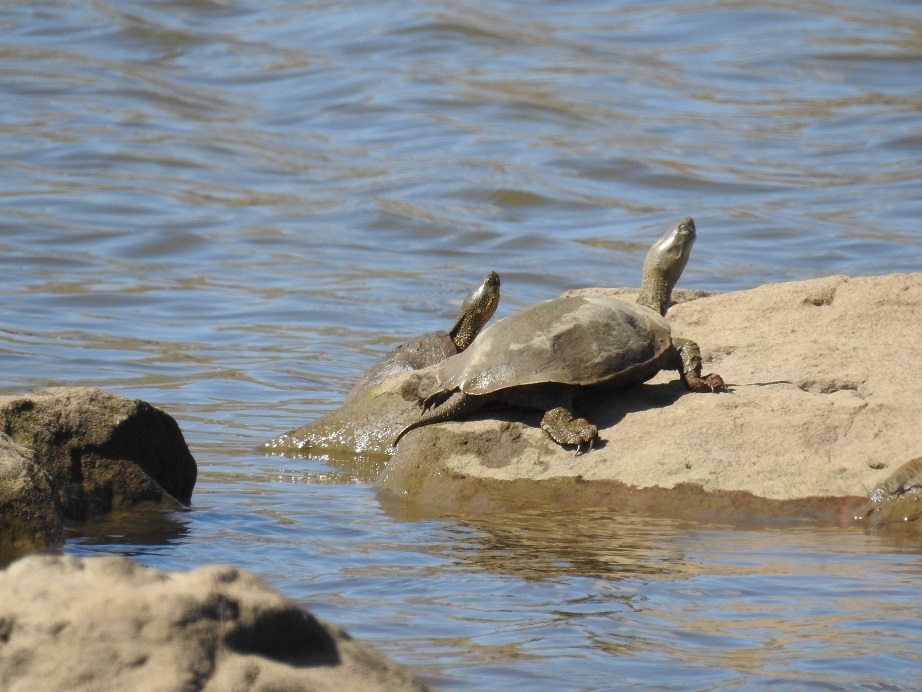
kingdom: Animalia
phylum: Chordata
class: Testudines
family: Geoemydidae
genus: Mauremys
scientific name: Mauremys leprosa
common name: Mediterranean pond turtle
